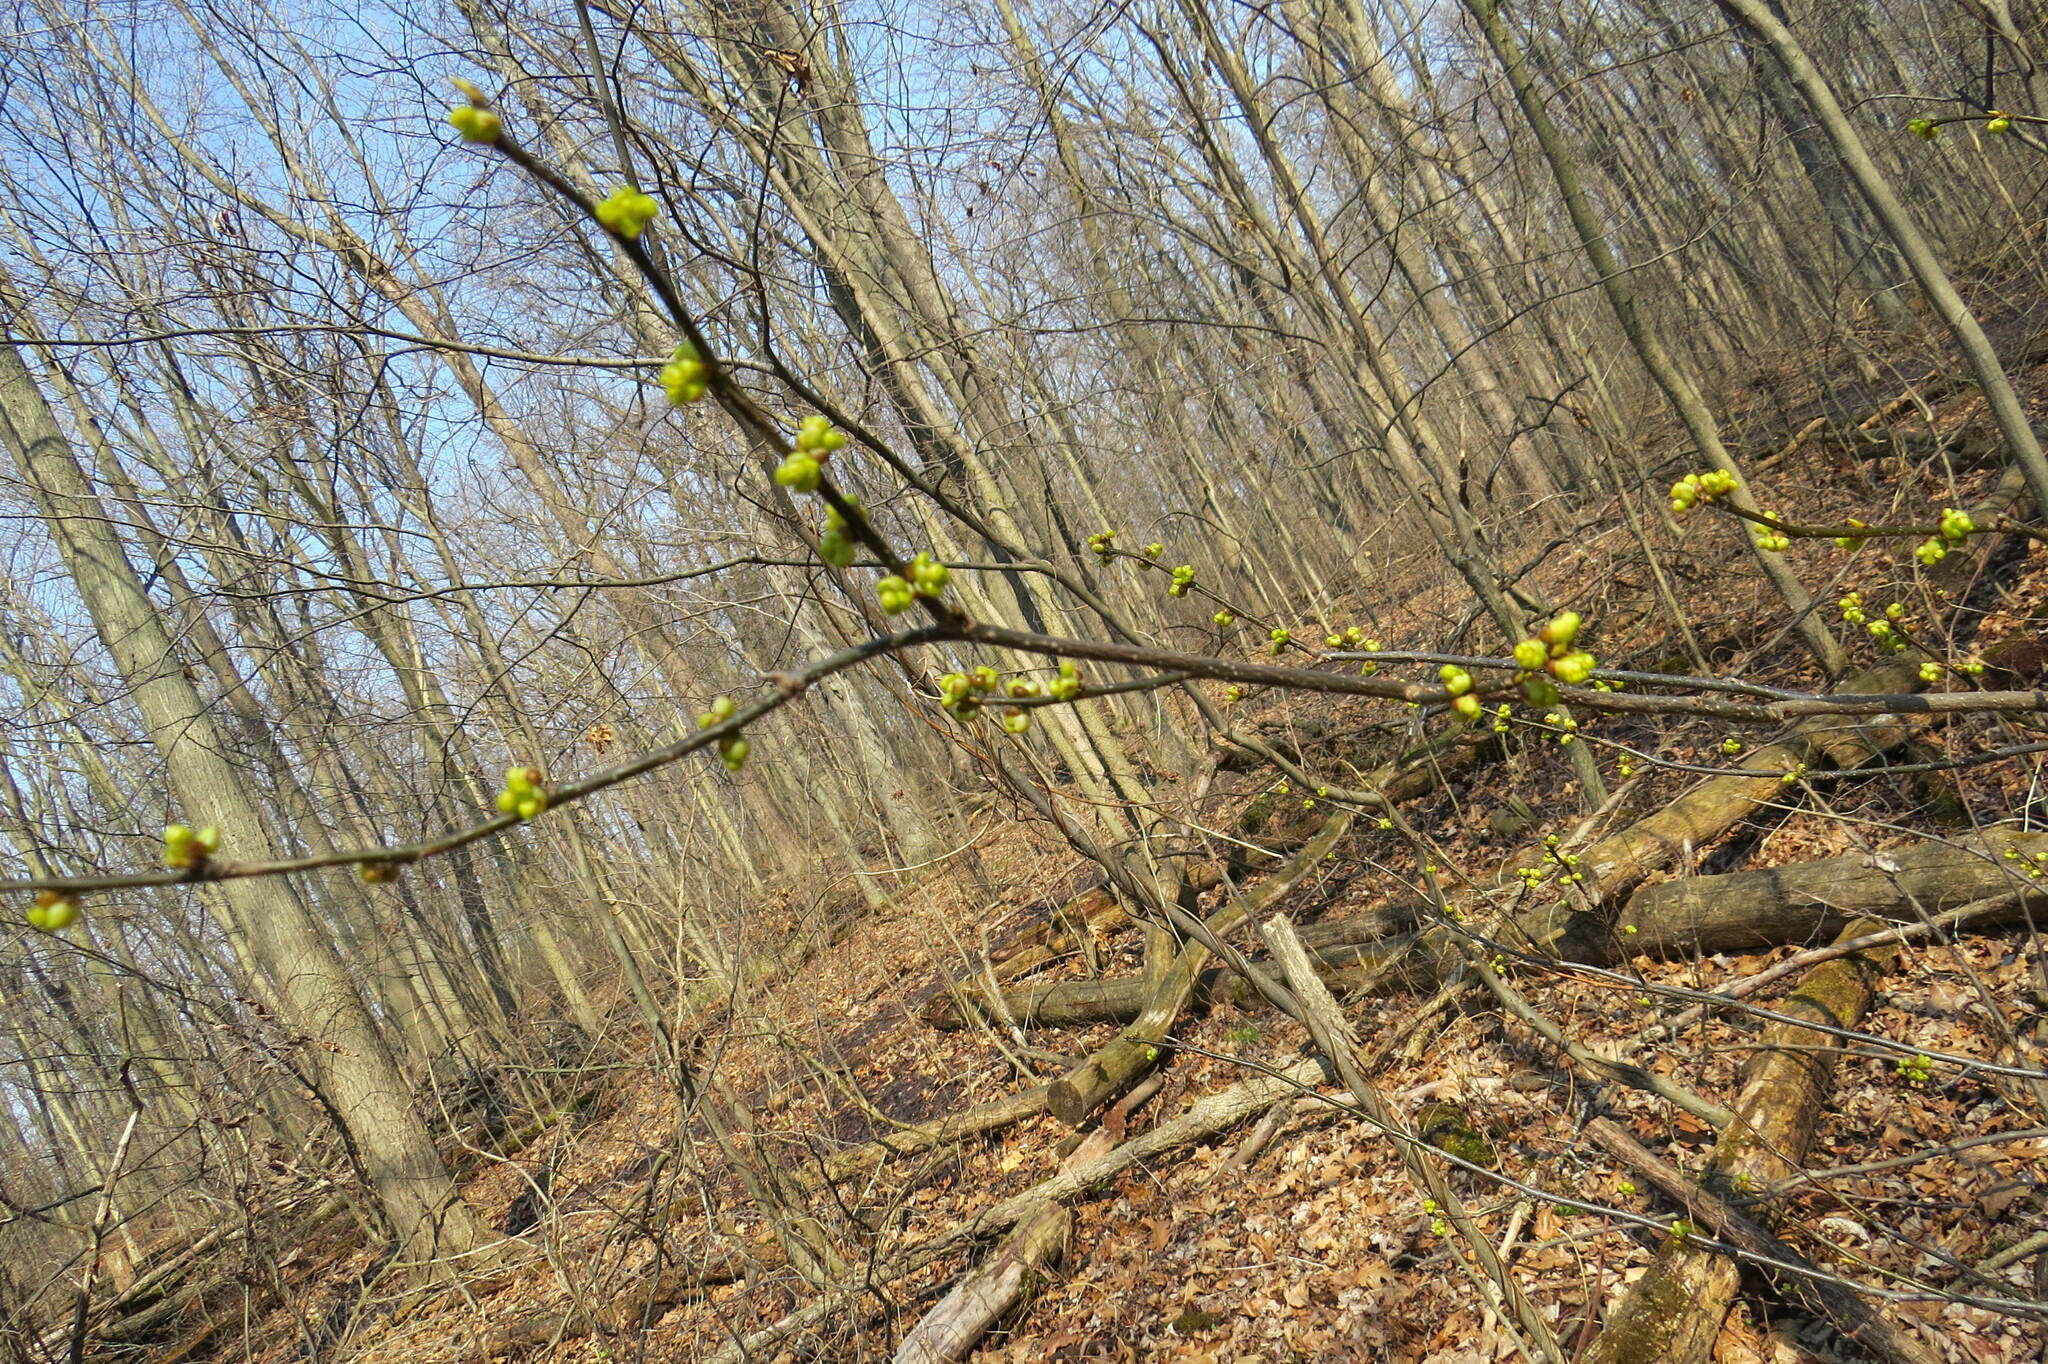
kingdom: Plantae
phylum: Tracheophyta
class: Magnoliopsida
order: Laurales
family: Lauraceae
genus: Lindera
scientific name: Lindera benzoin
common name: Spicebush
